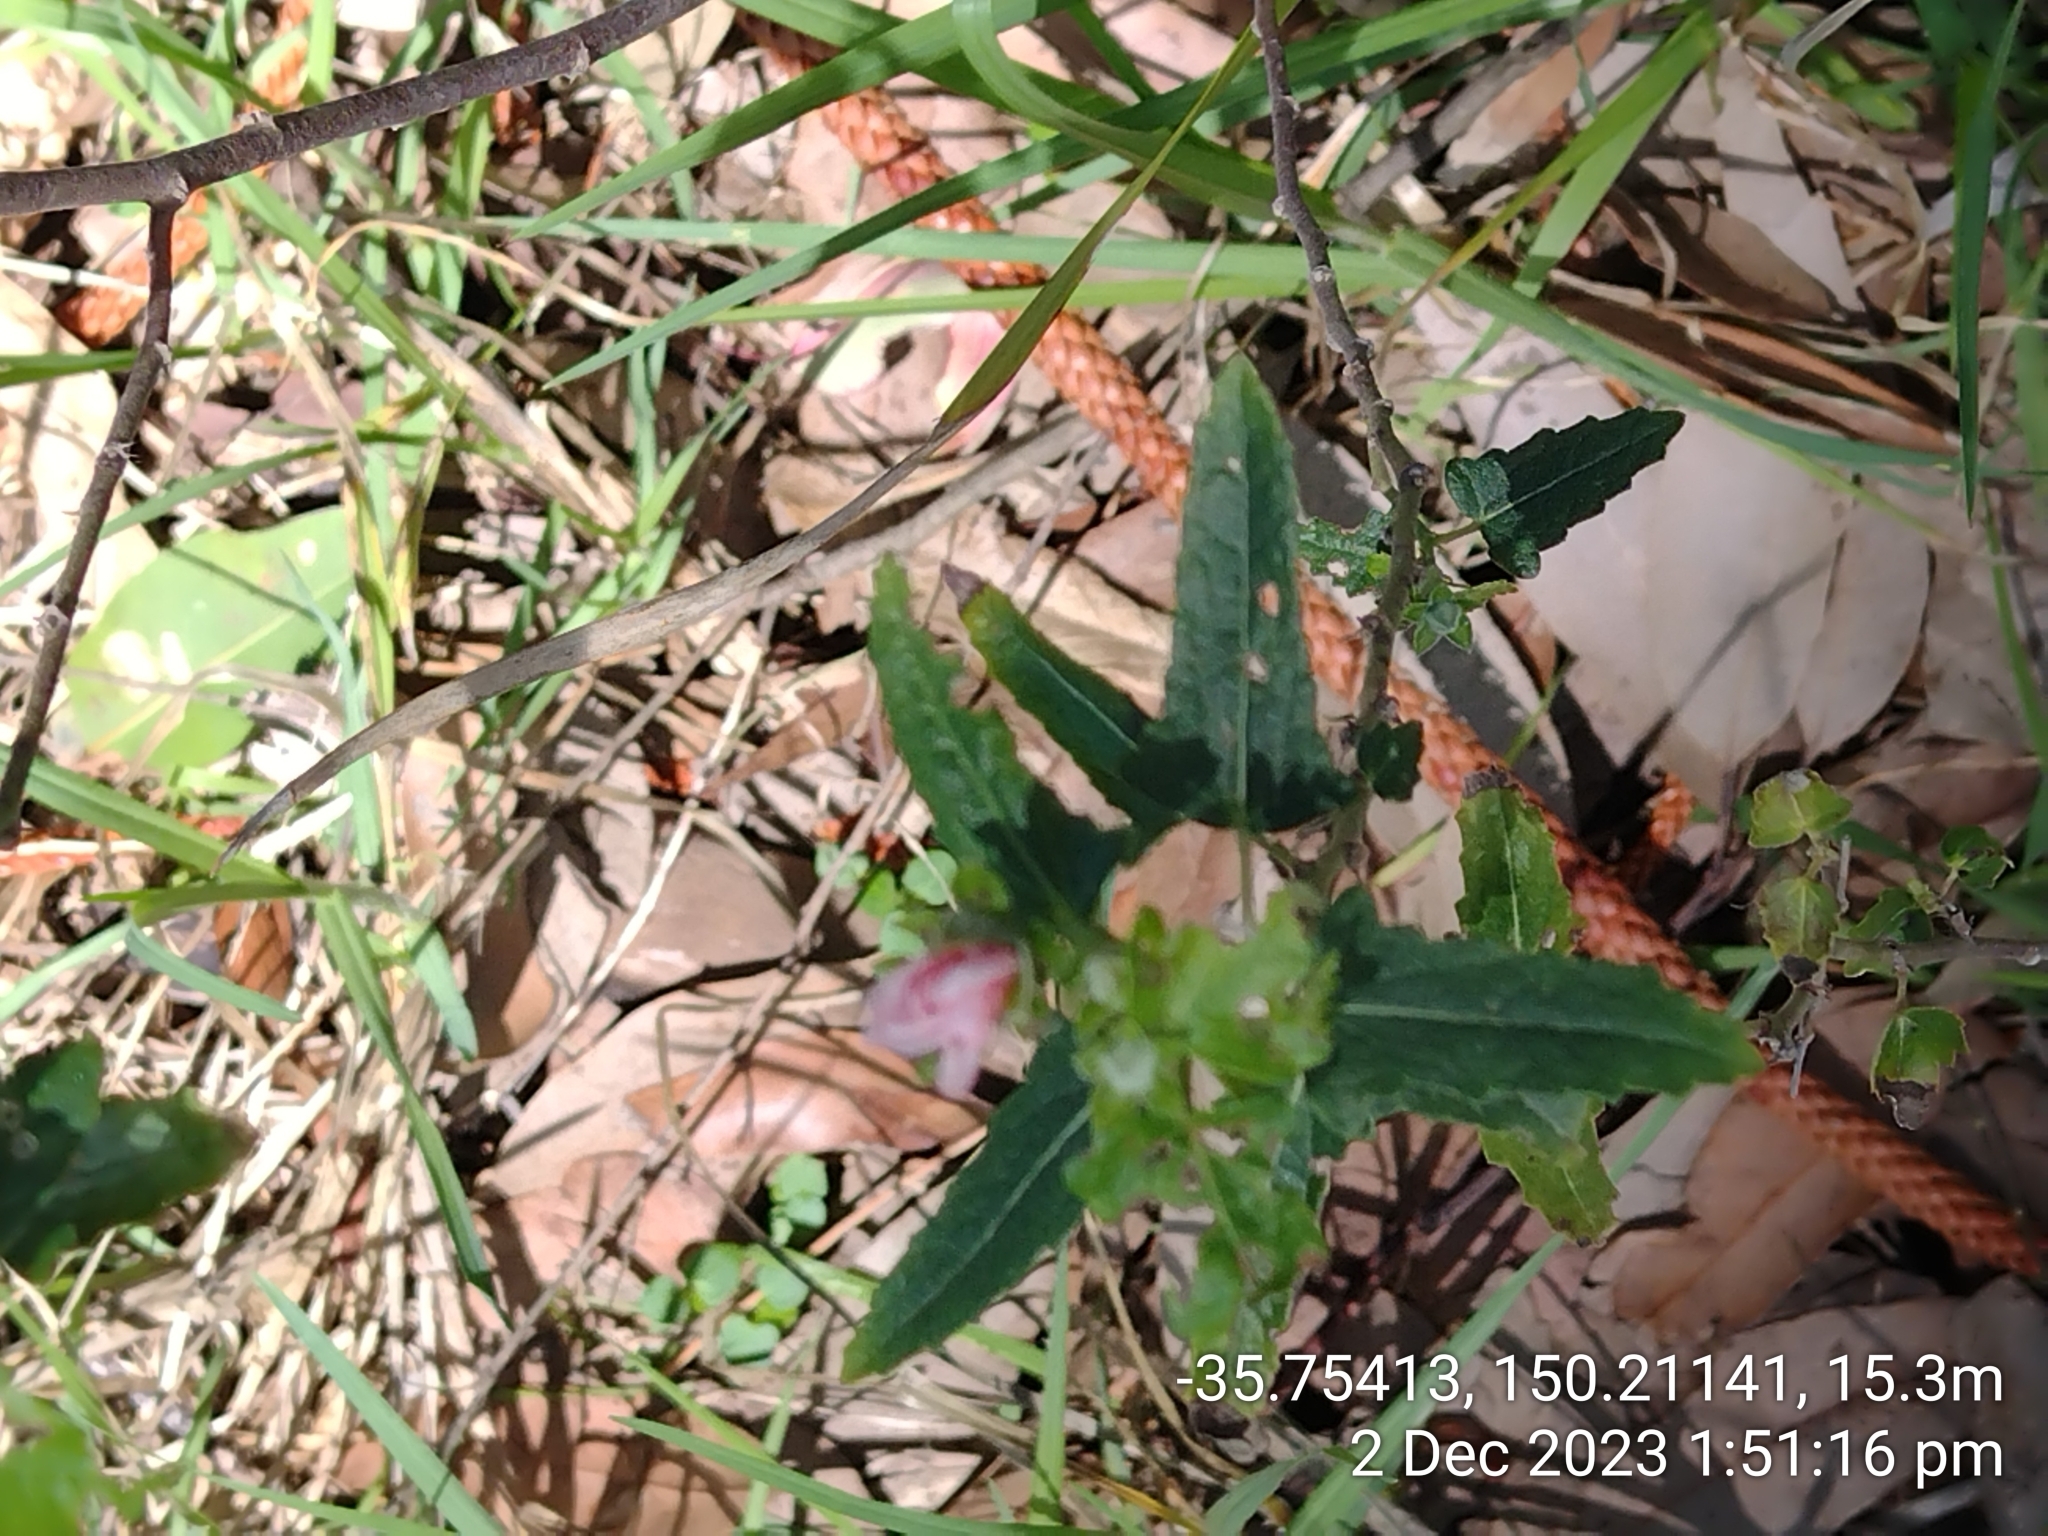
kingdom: Plantae
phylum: Tracheophyta
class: Magnoliopsida
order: Malvales
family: Malvaceae
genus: Pavonia
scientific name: Pavonia hastata
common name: Spearleaf swampmallow
